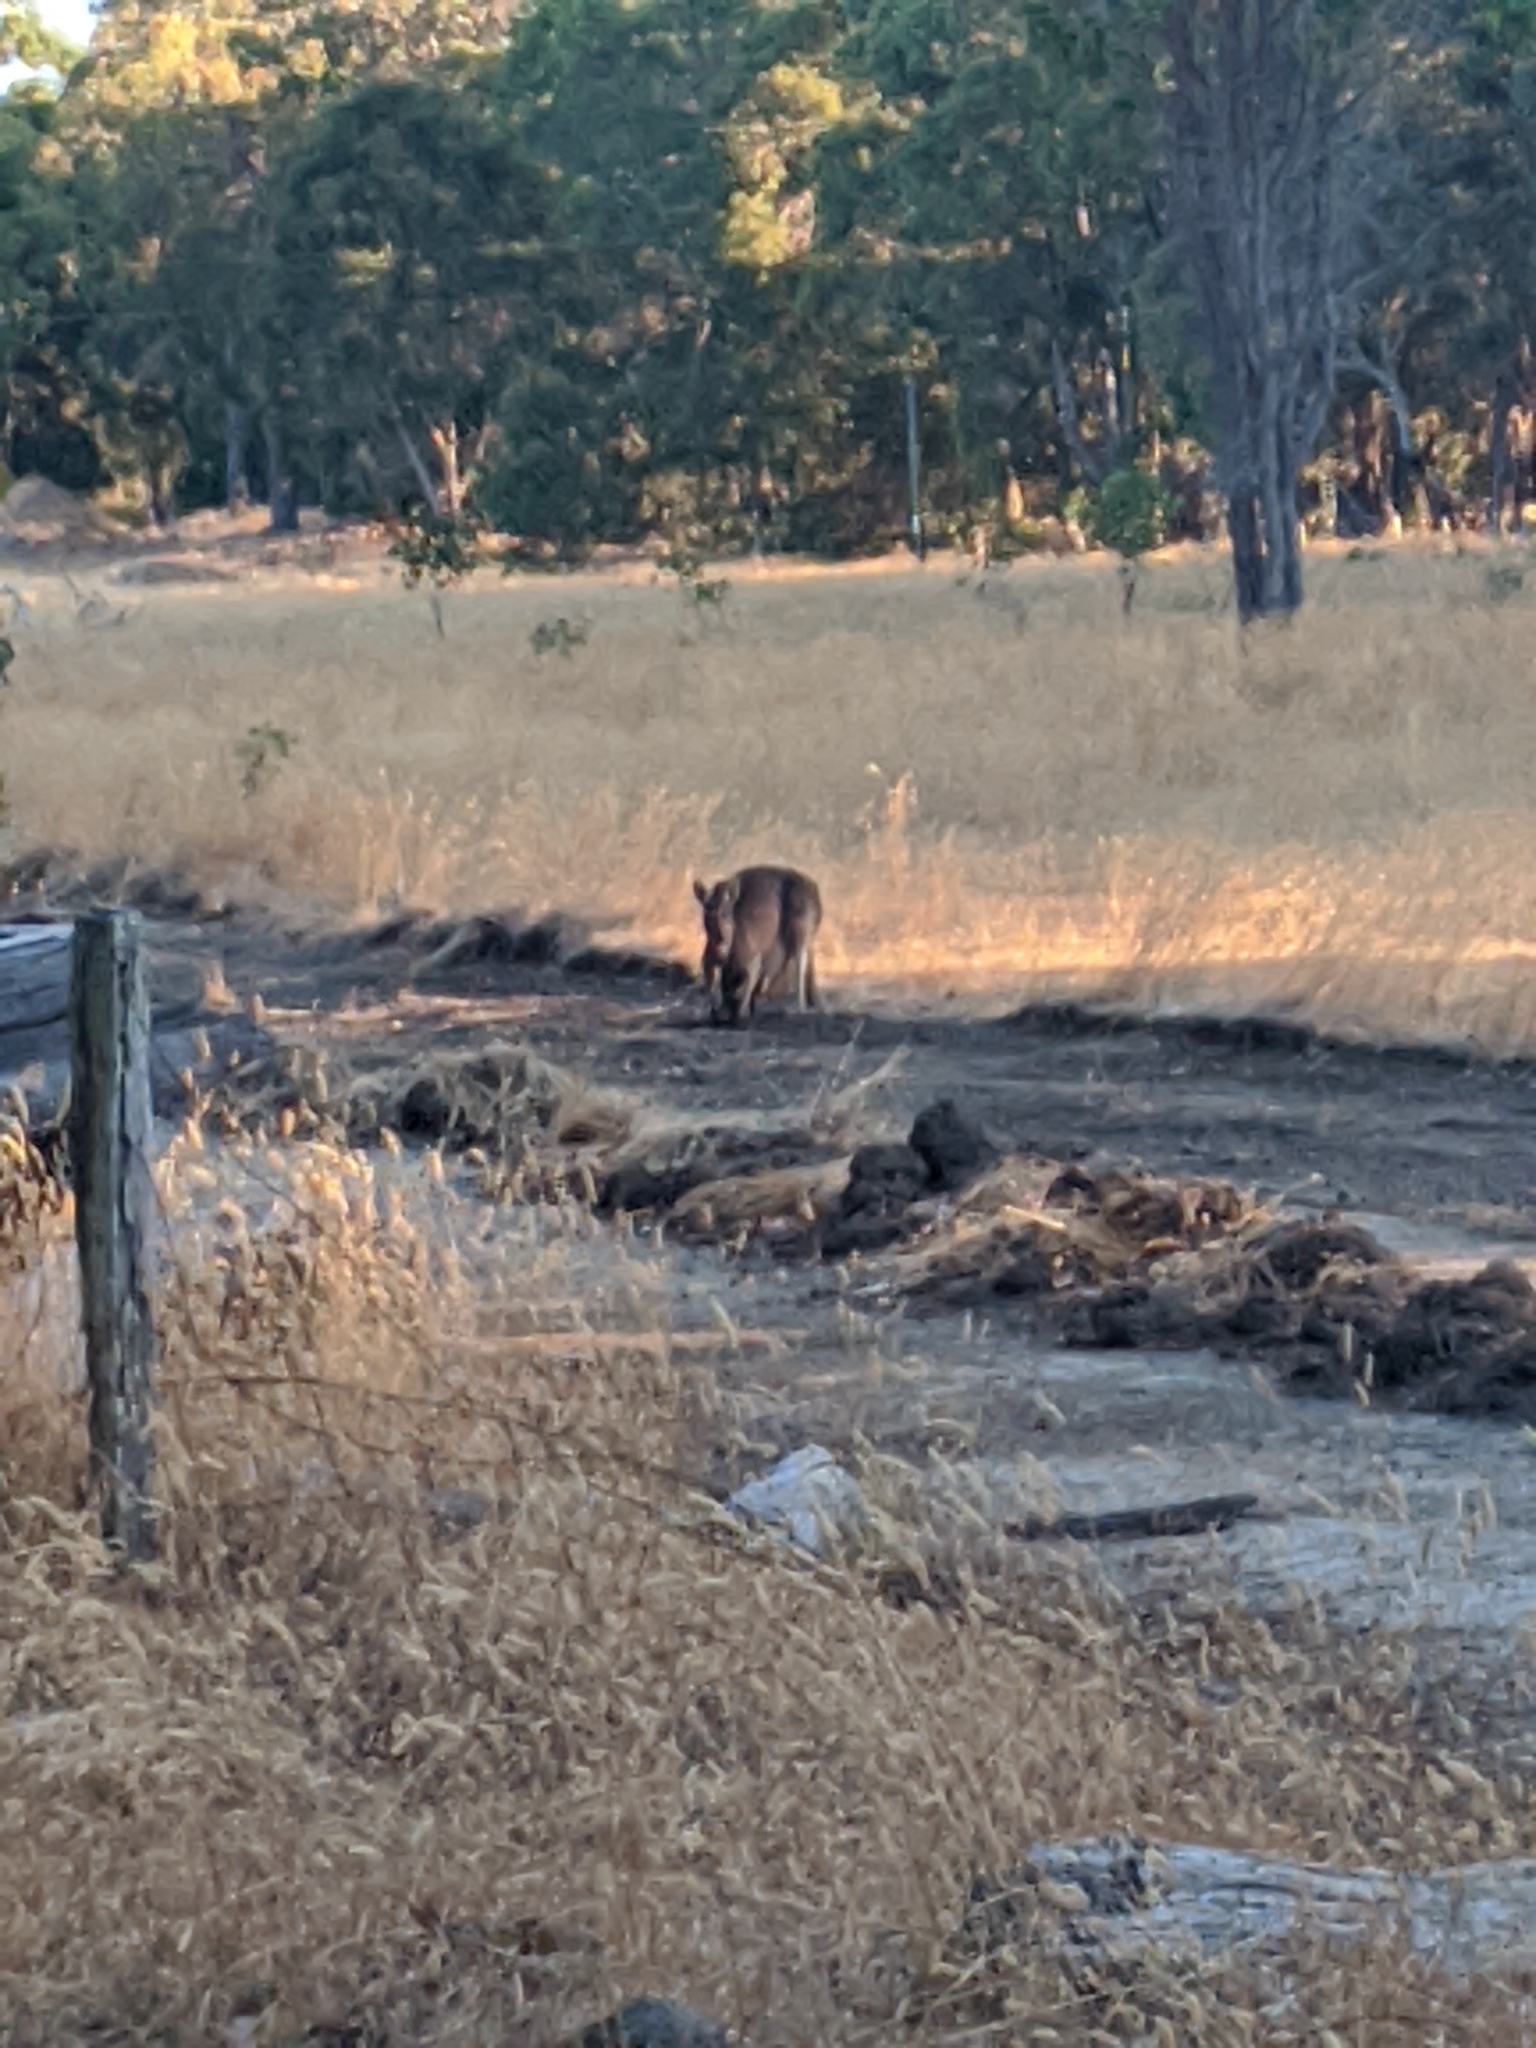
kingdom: Animalia
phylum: Chordata
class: Mammalia
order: Diprotodontia
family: Macropodidae
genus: Macropus
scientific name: Macropus fuliginosus
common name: Western grey kangaroo
